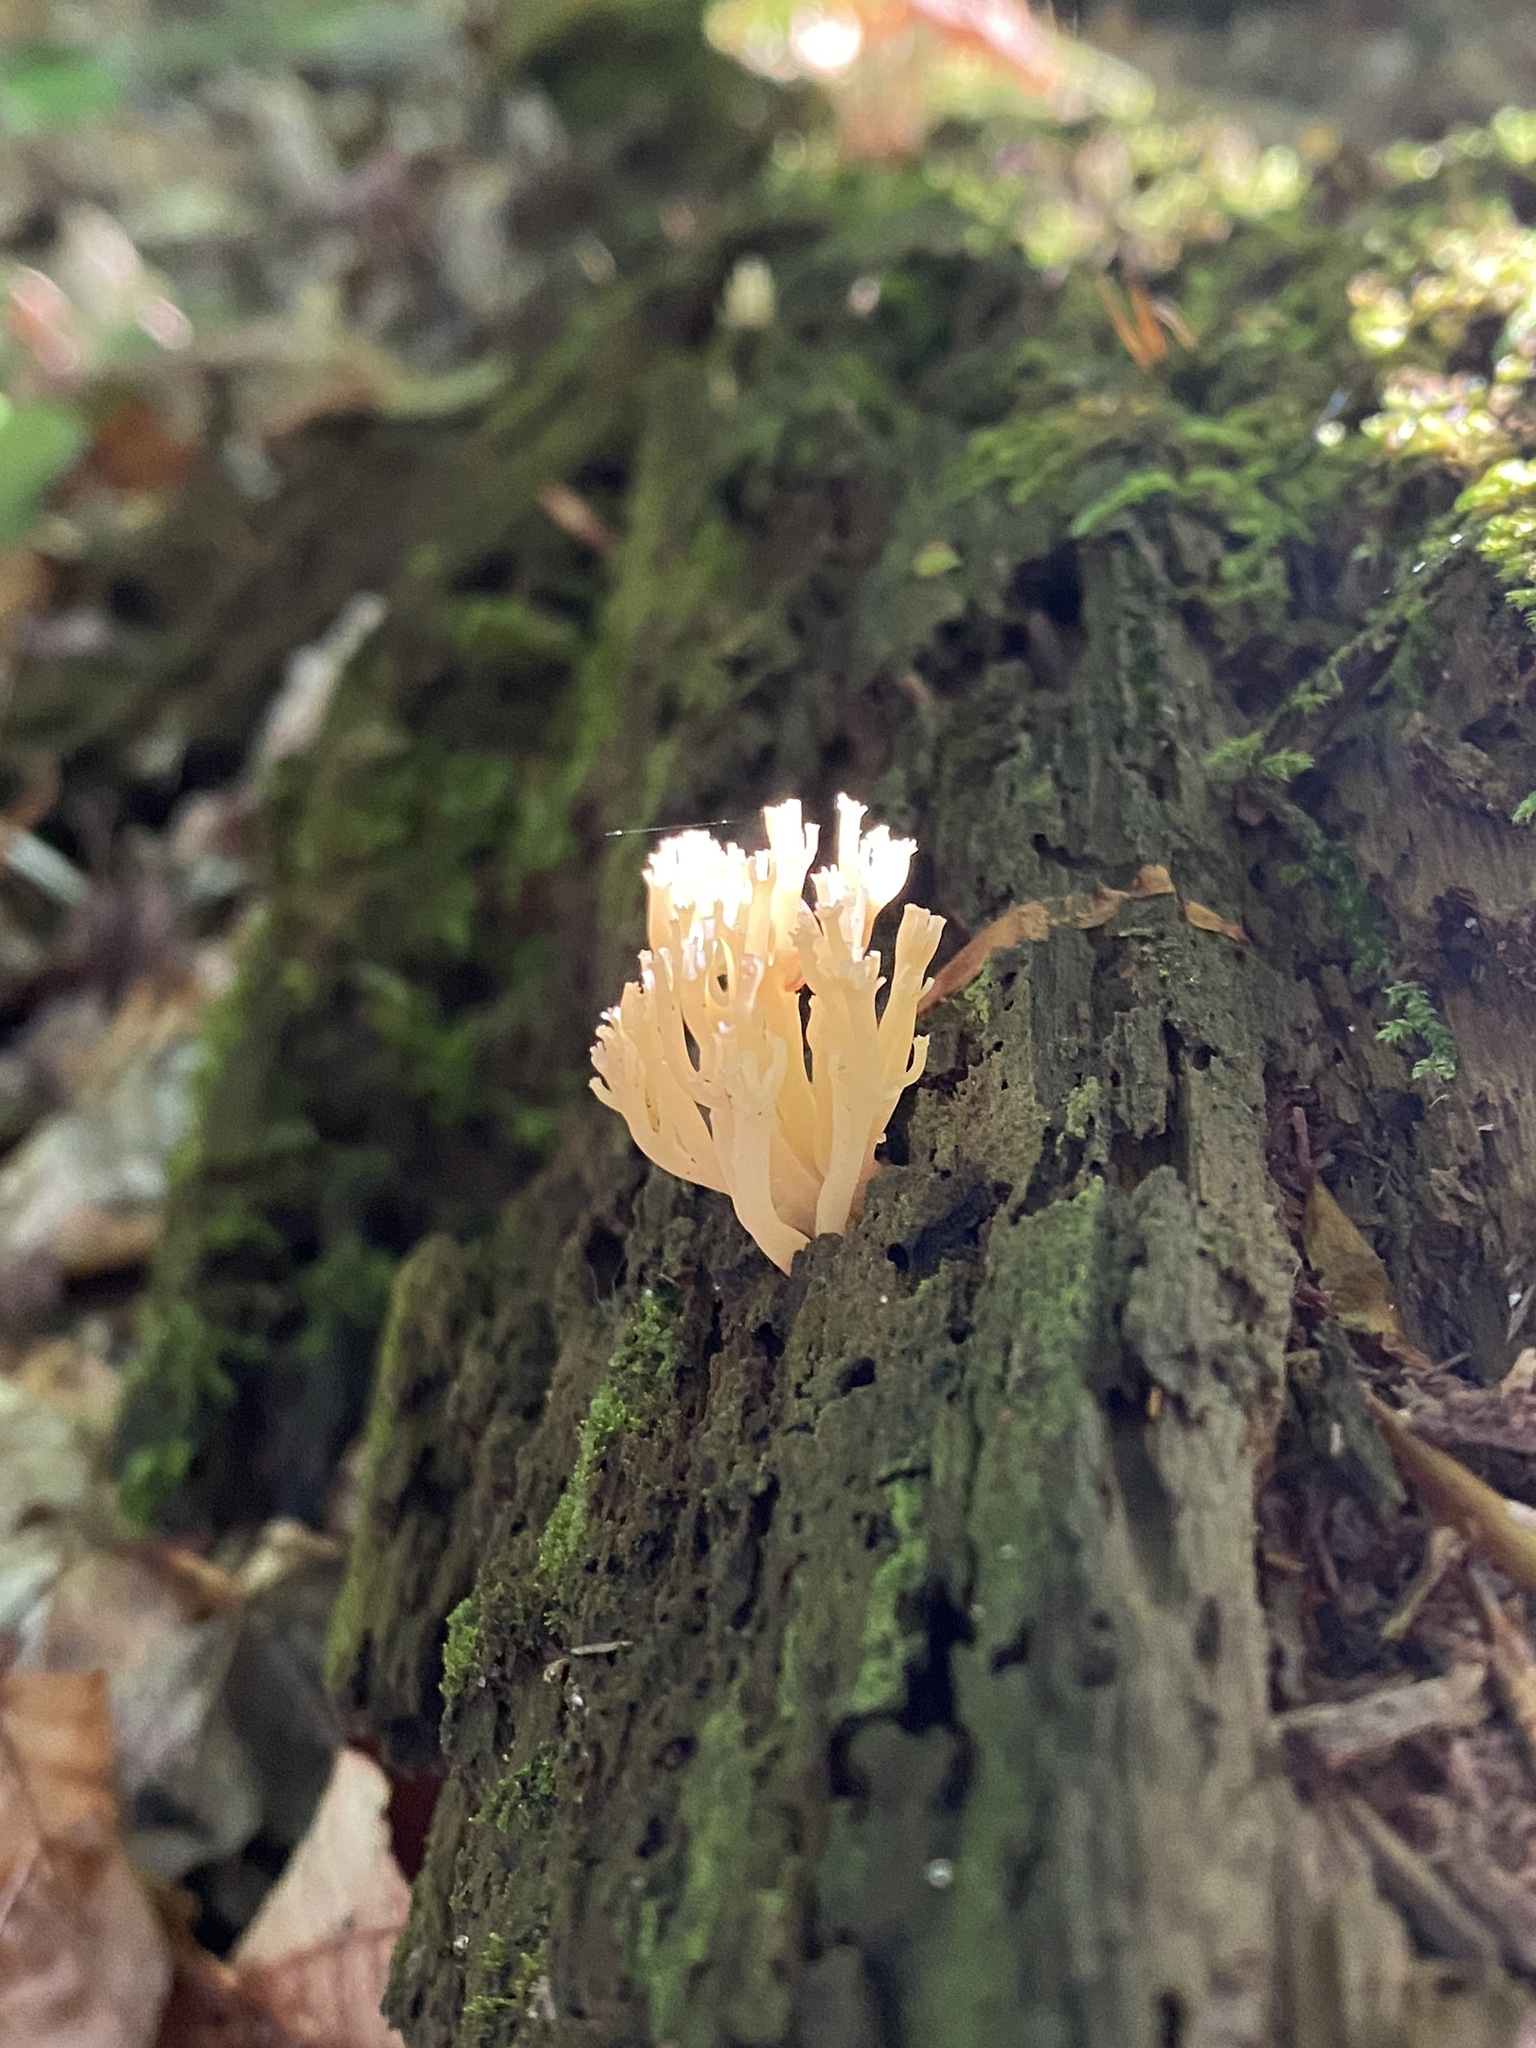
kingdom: Fungi
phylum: Basidiomycota
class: Agaricomycetes
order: Russulales
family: Auriscalpiaceae
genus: Artomyces
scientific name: Artomyces pyxidatus
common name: Crown-tipped coral fungus
